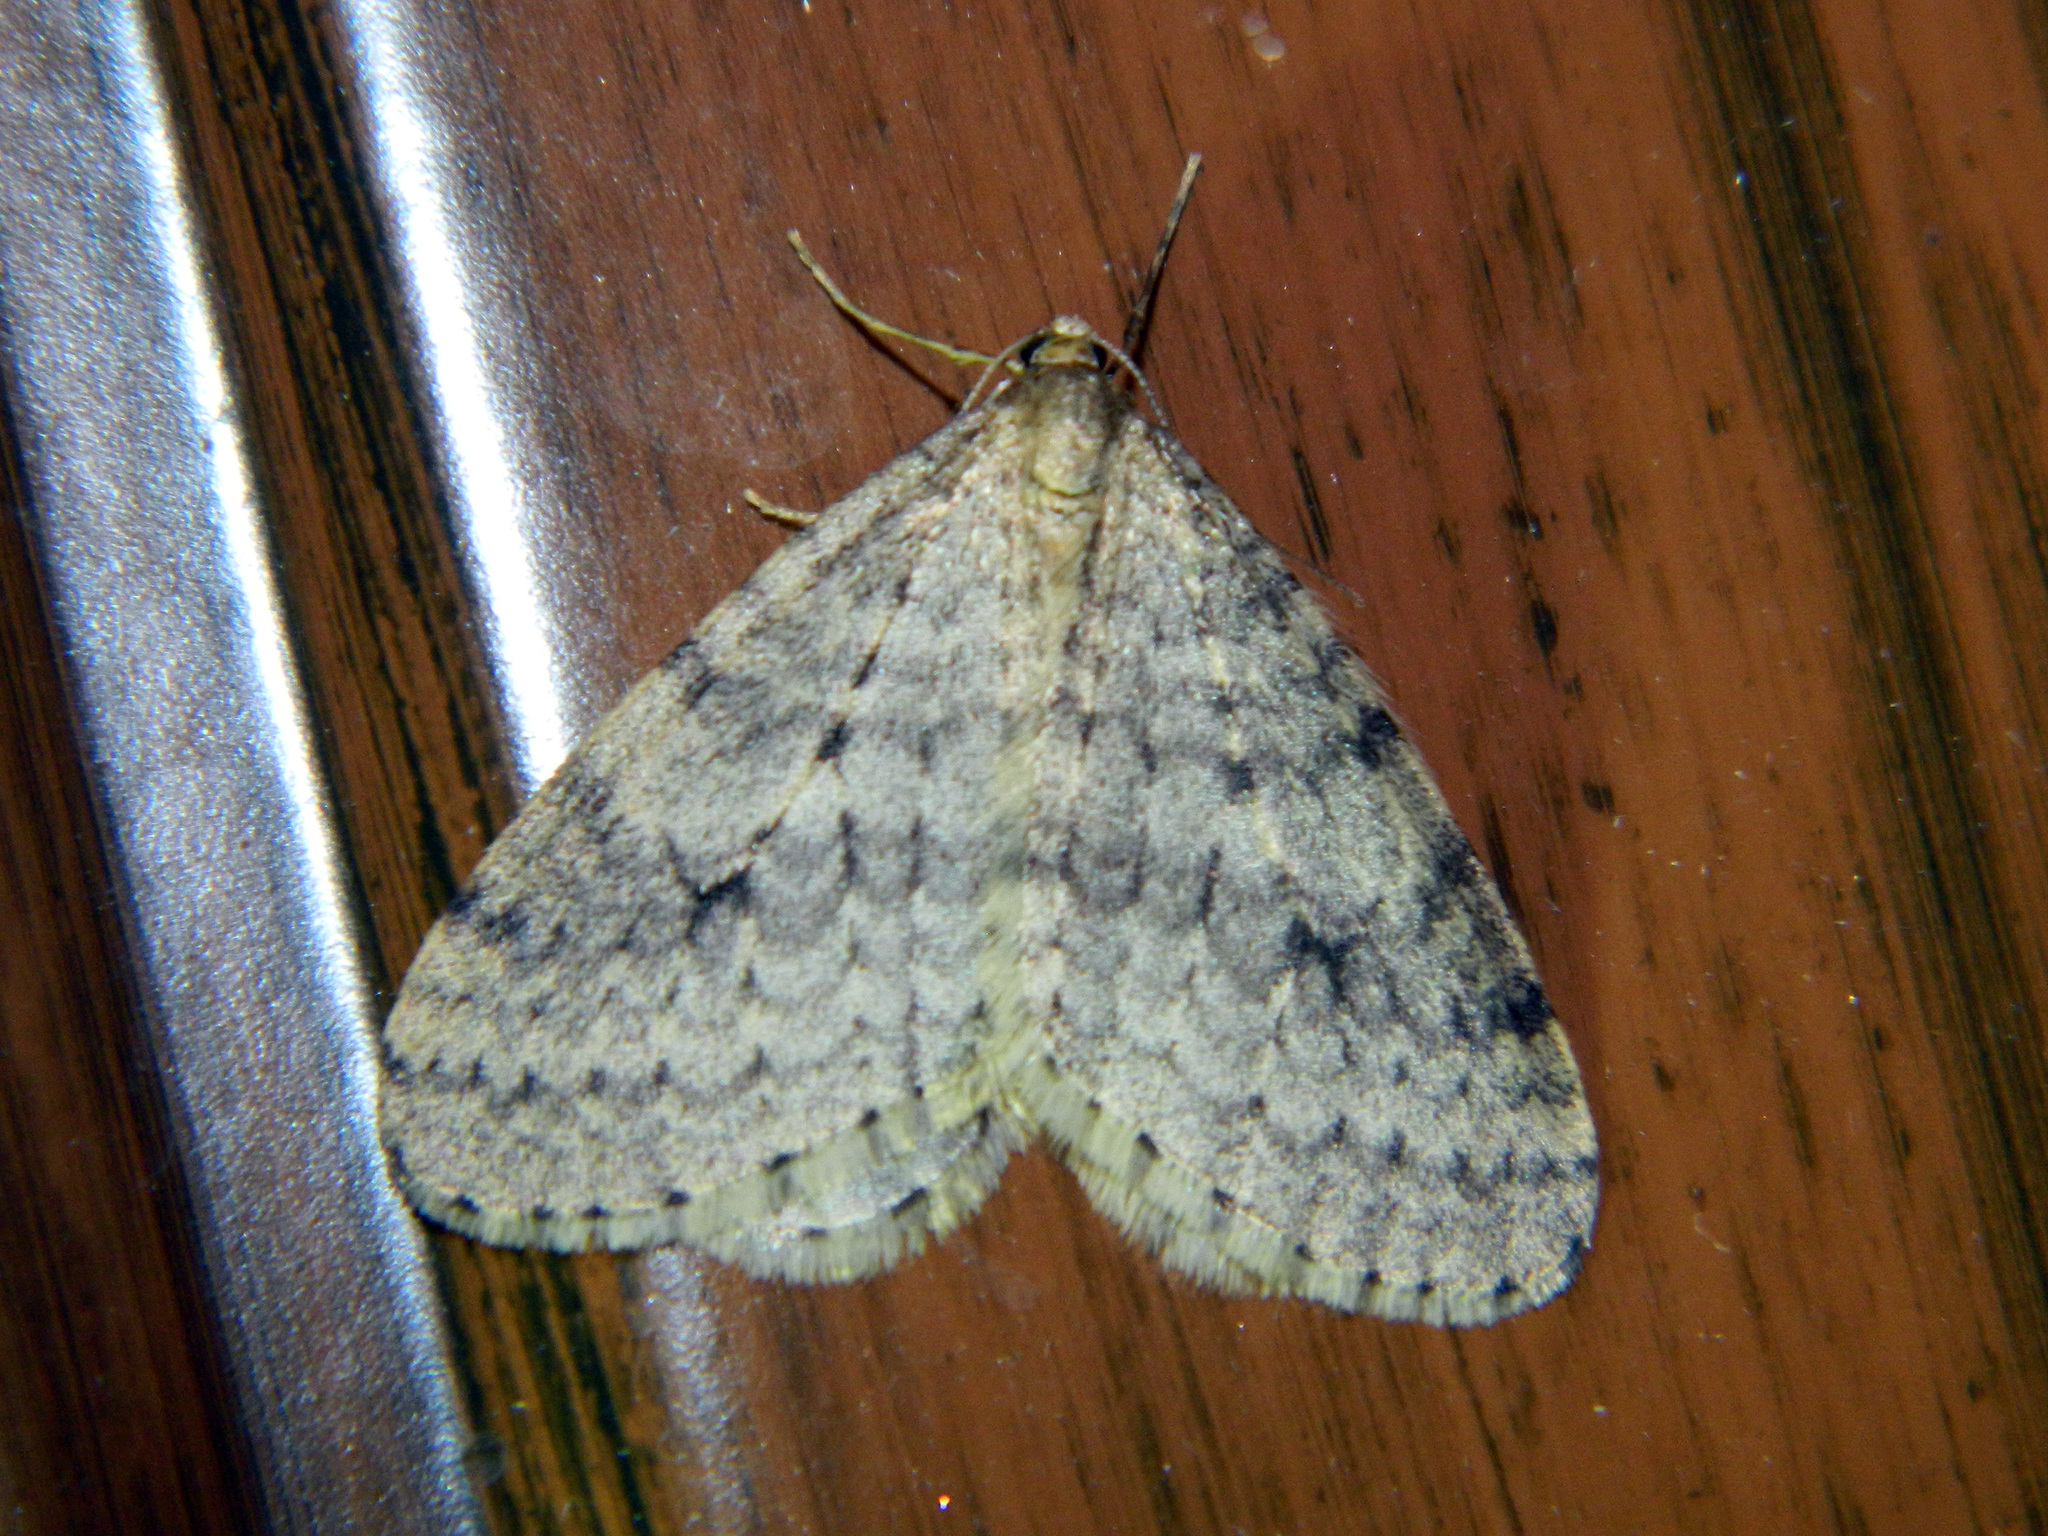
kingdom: Animalia
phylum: Arthropoda
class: Insecta
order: Lepidoptera
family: Geometridae
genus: Operophtera
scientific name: Operophtera bruceata
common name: Bruce spanworm
